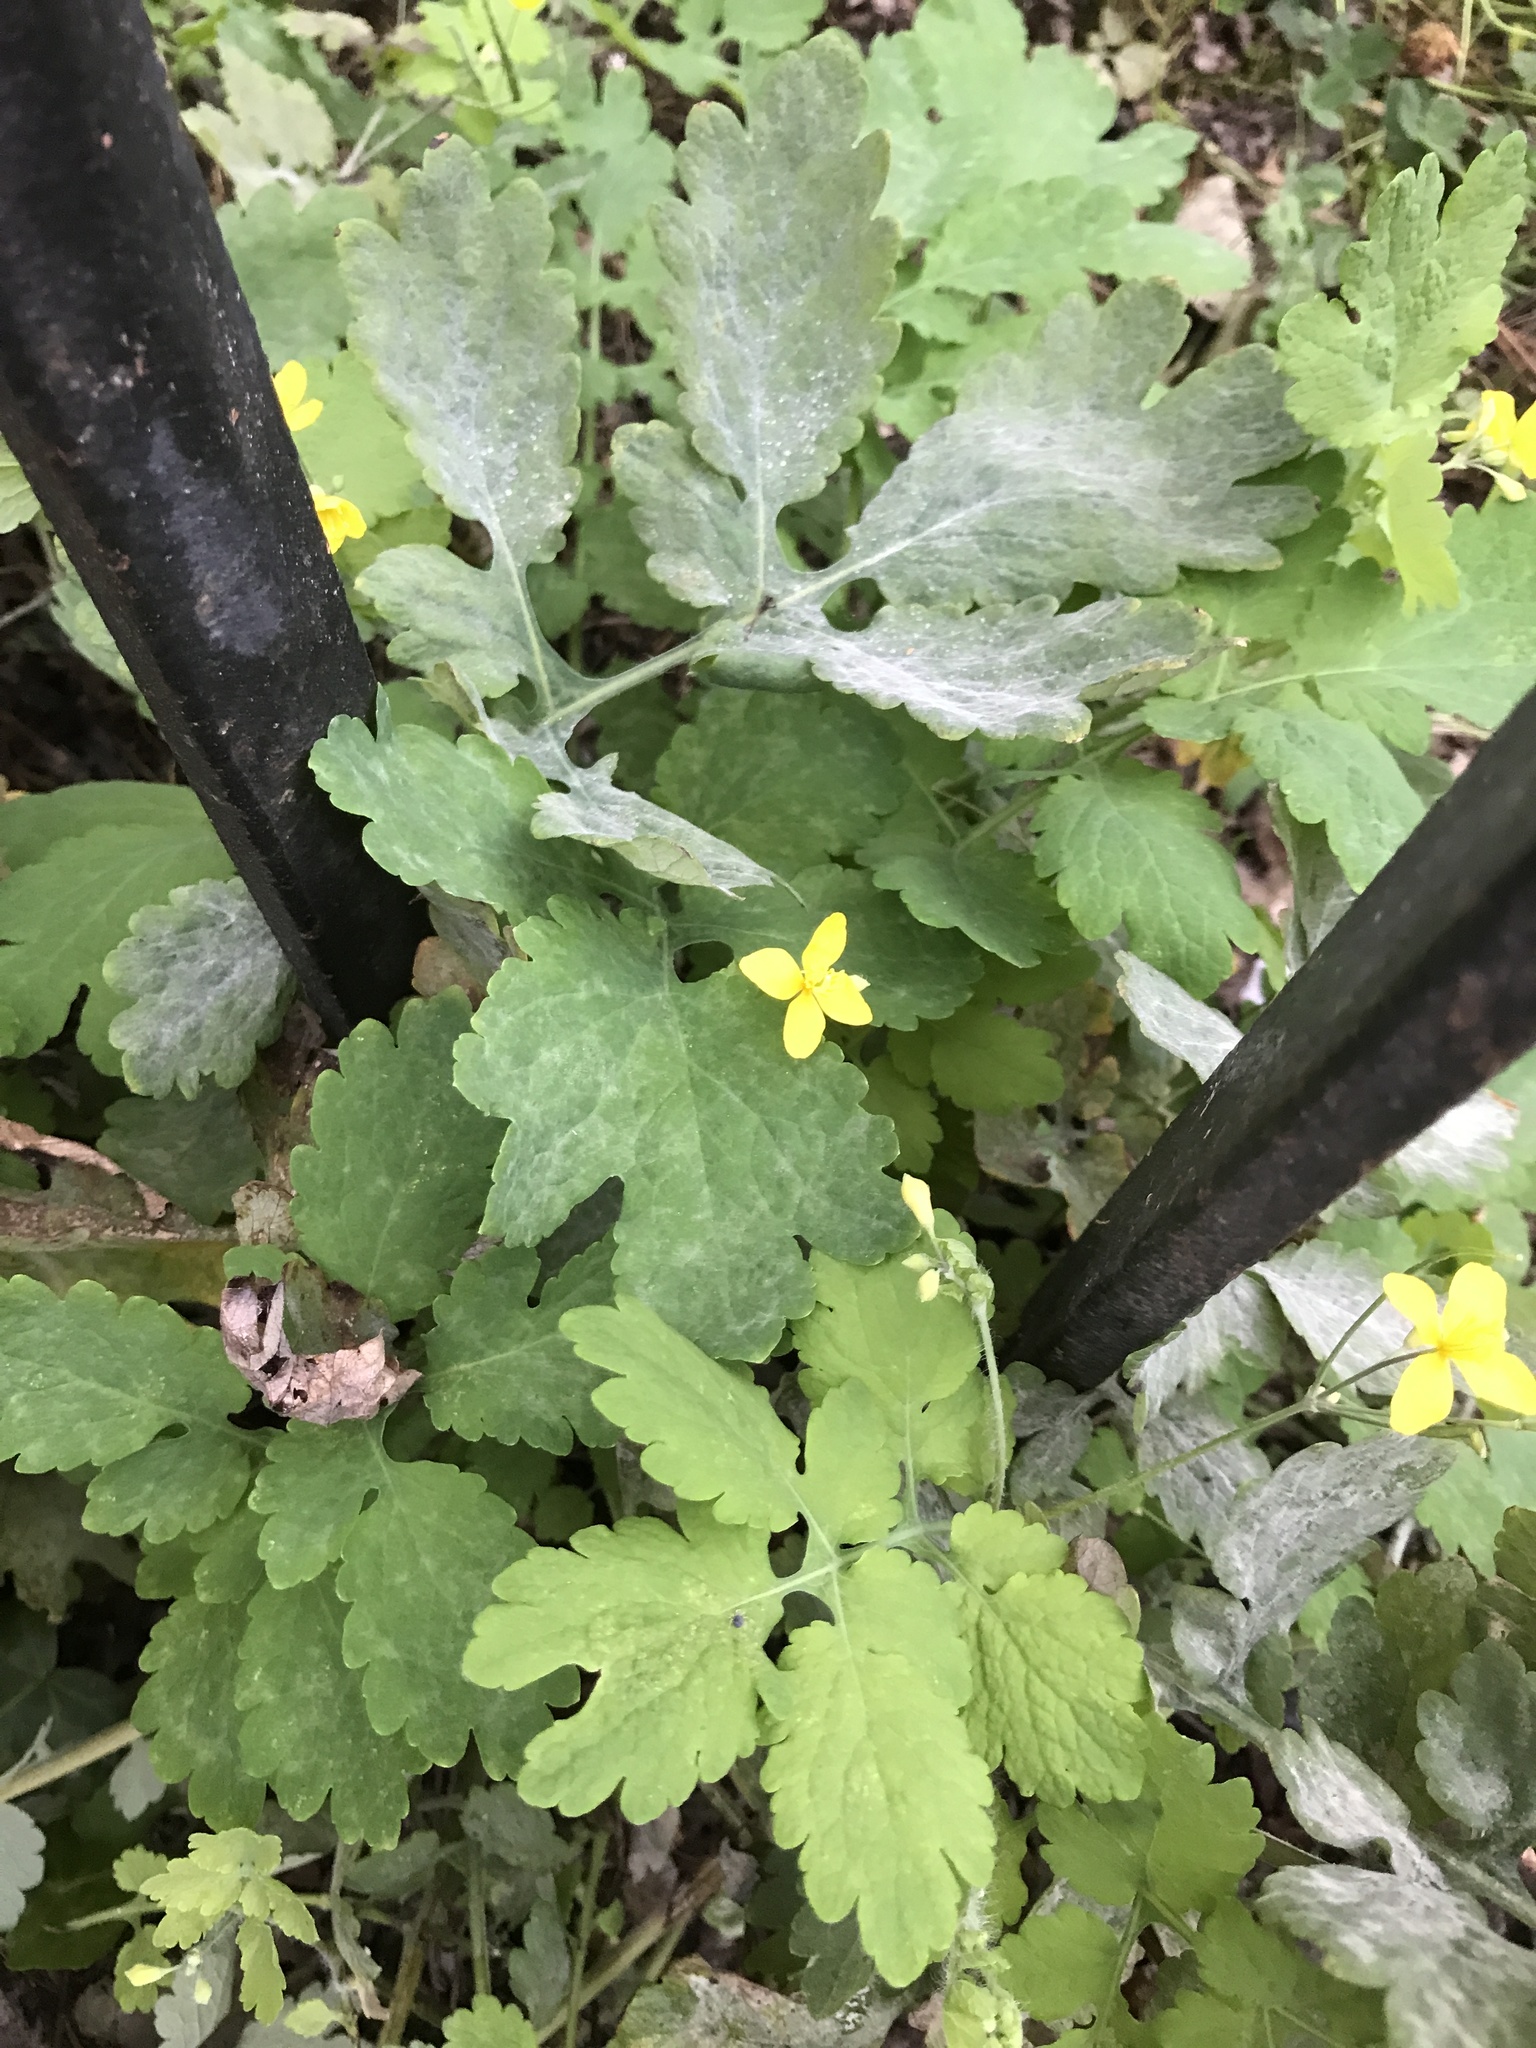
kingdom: Plantae
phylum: Tracheophyta
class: Magnoliopsida
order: Ranunculales
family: Papaveraceae
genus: Chelidonium
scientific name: Chelidonium majus
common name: Greater celandine
